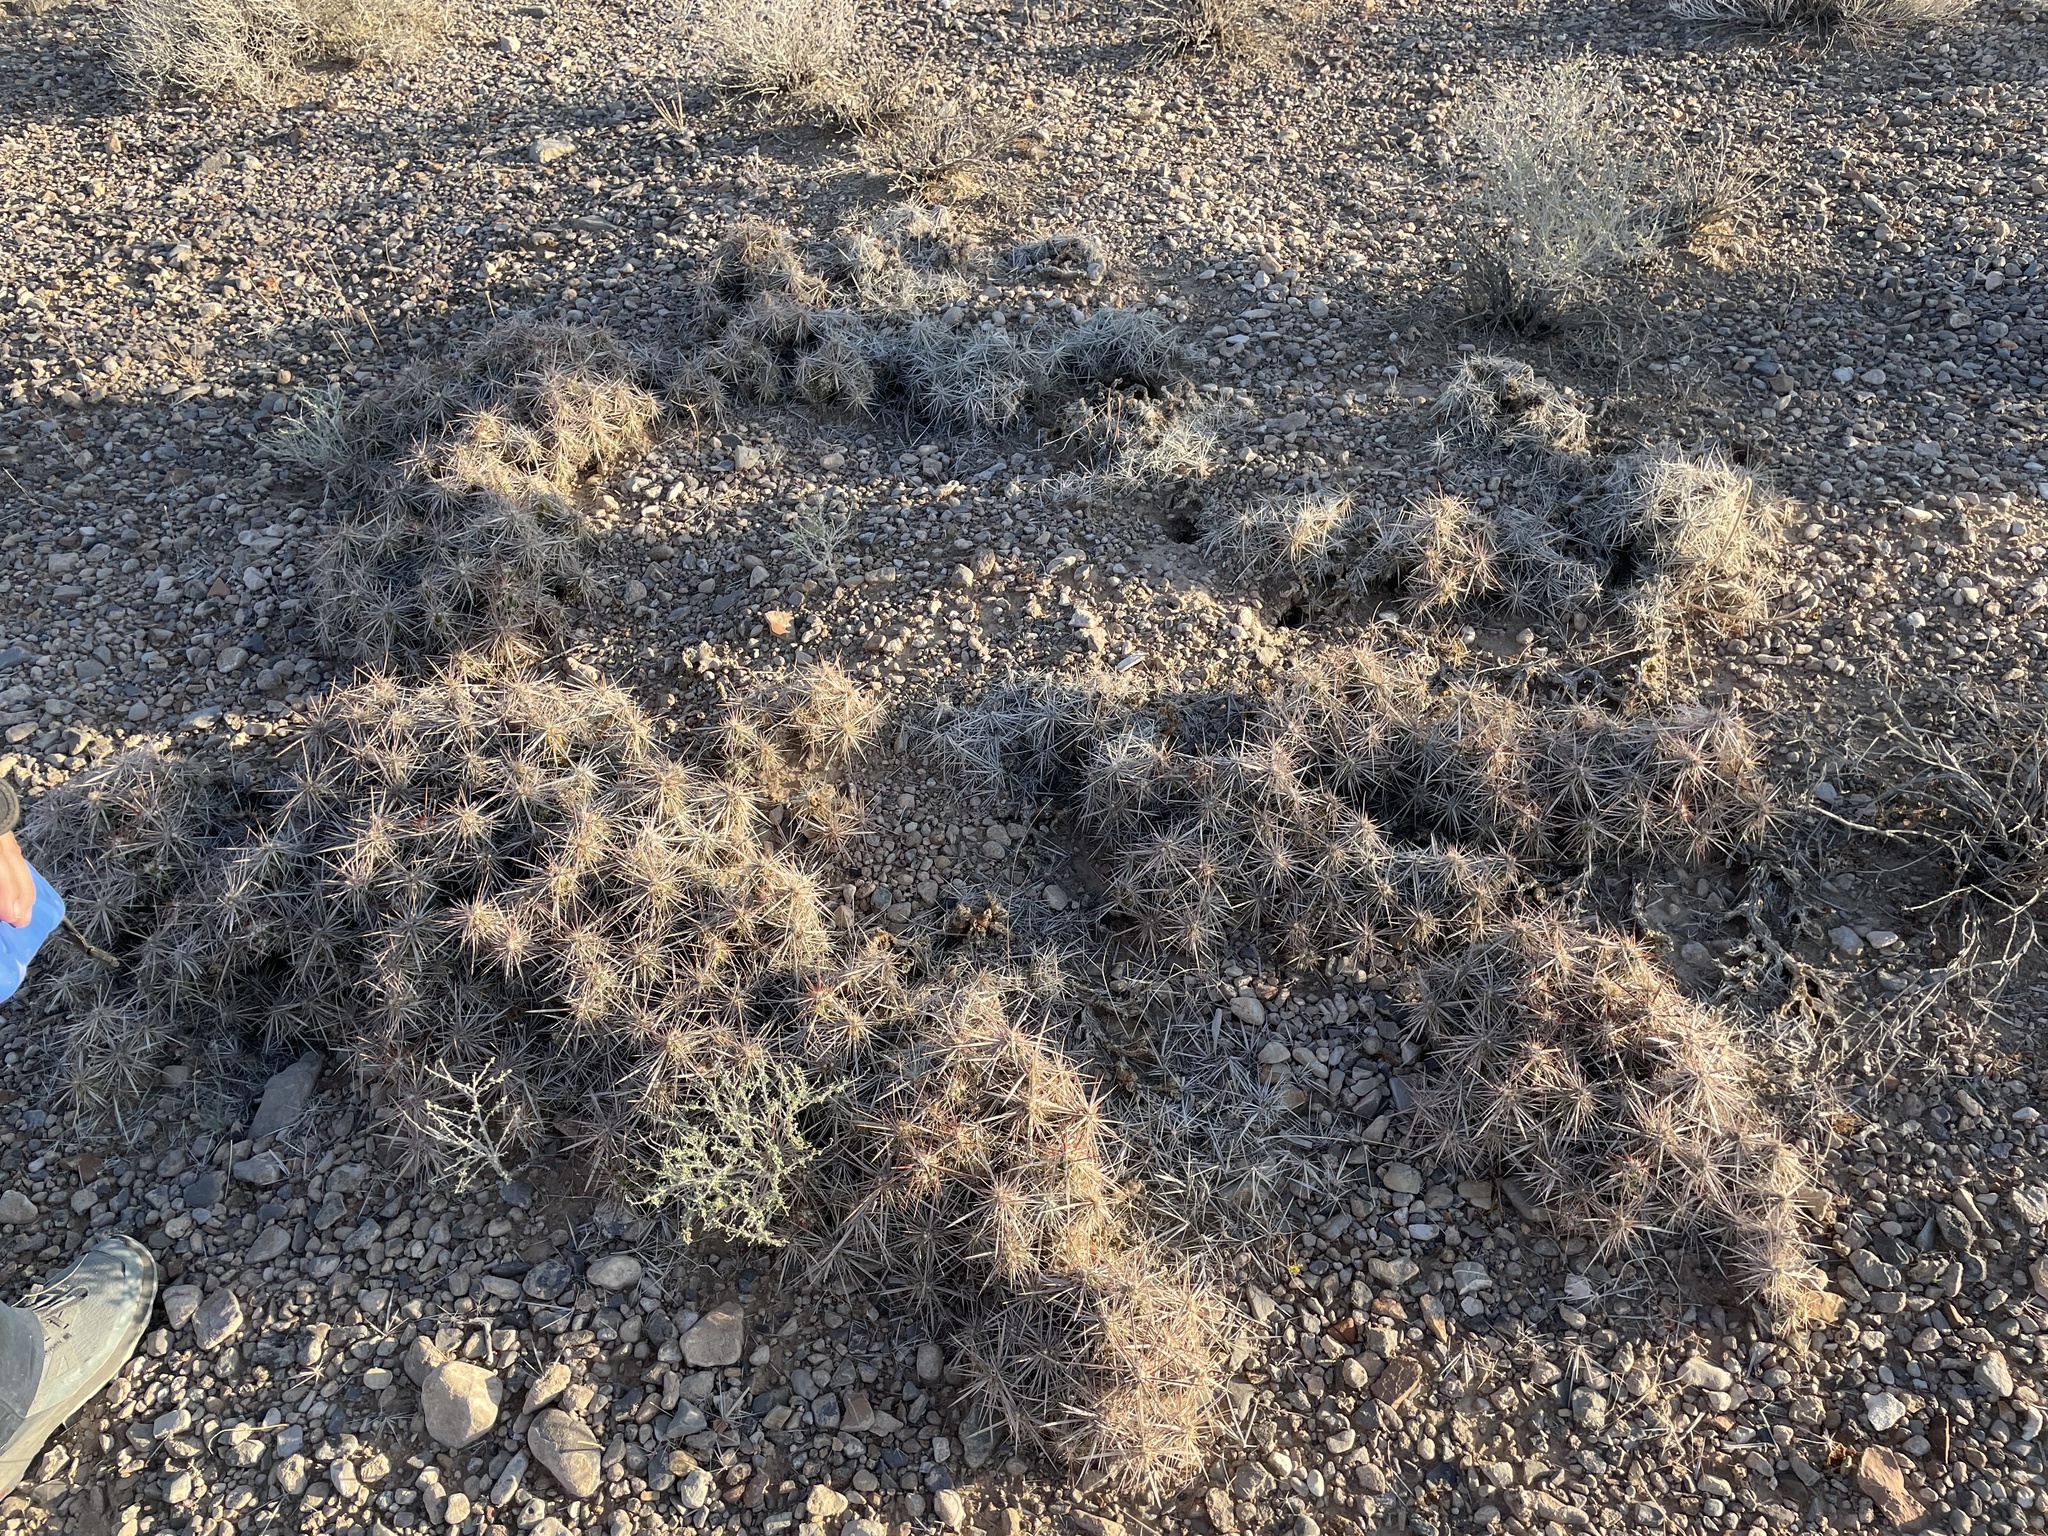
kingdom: Plantae
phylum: Tracheophyta
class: Magnoliopsida
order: Caryophyllales
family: Cactaceae
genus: Grusonia
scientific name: Grusonia parishiorum
